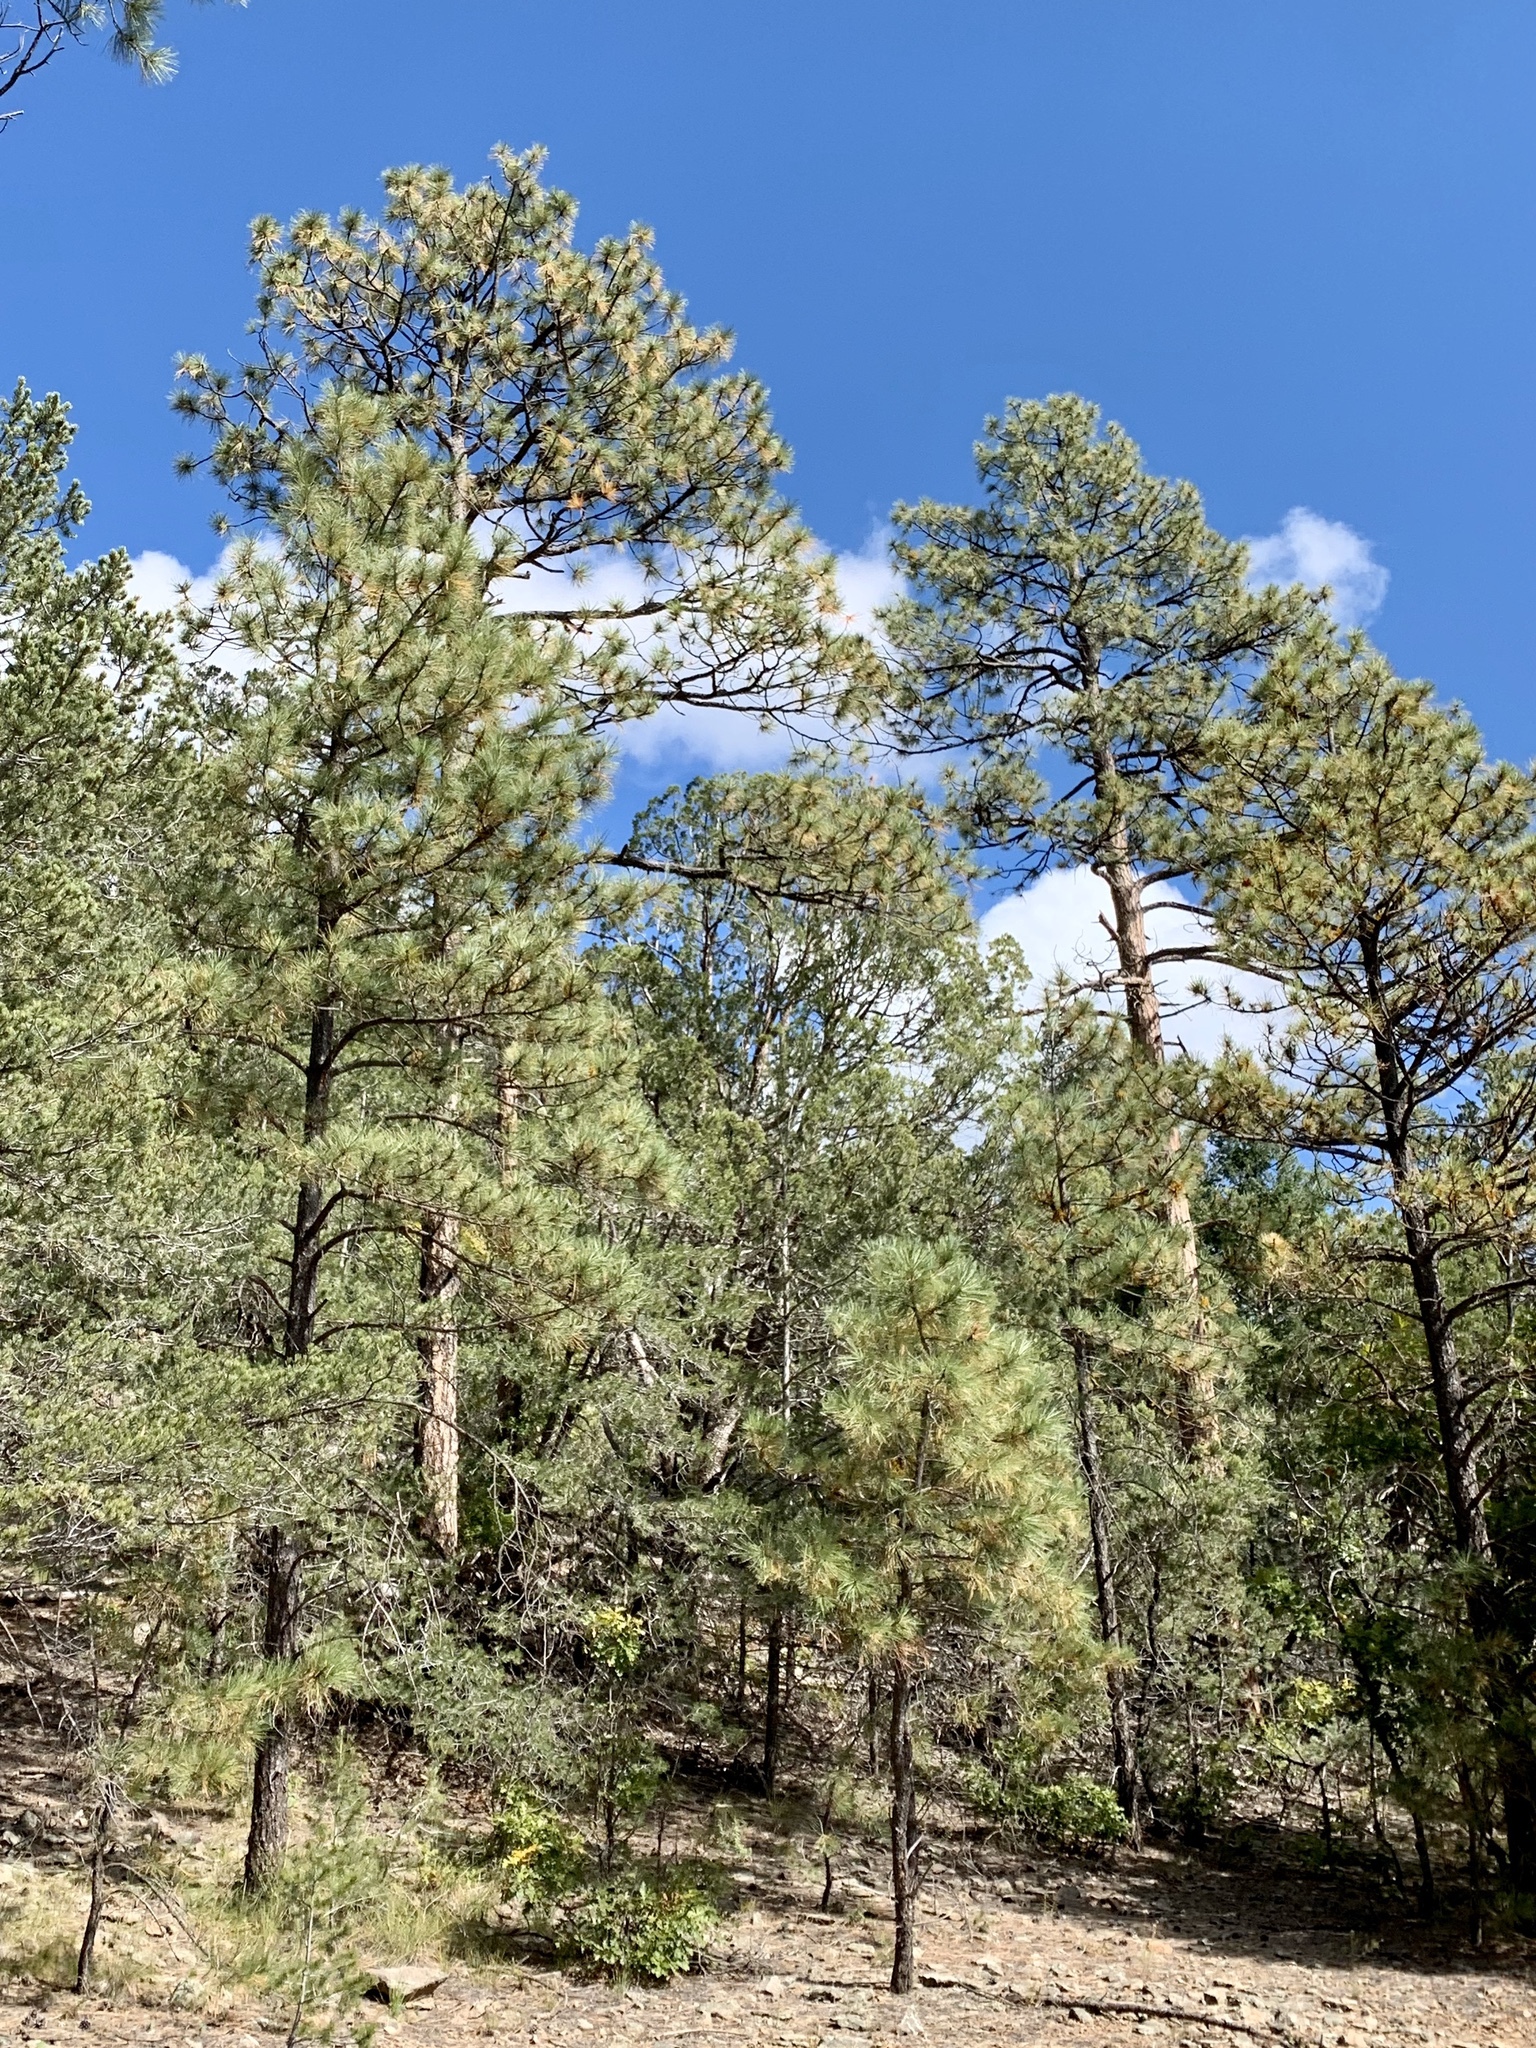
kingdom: Plantae
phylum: Tracheophyta
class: Pinopsida
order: Pinales
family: Pinaceae
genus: Pinus
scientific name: Pinus ponderosa
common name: Western yellow-pine
